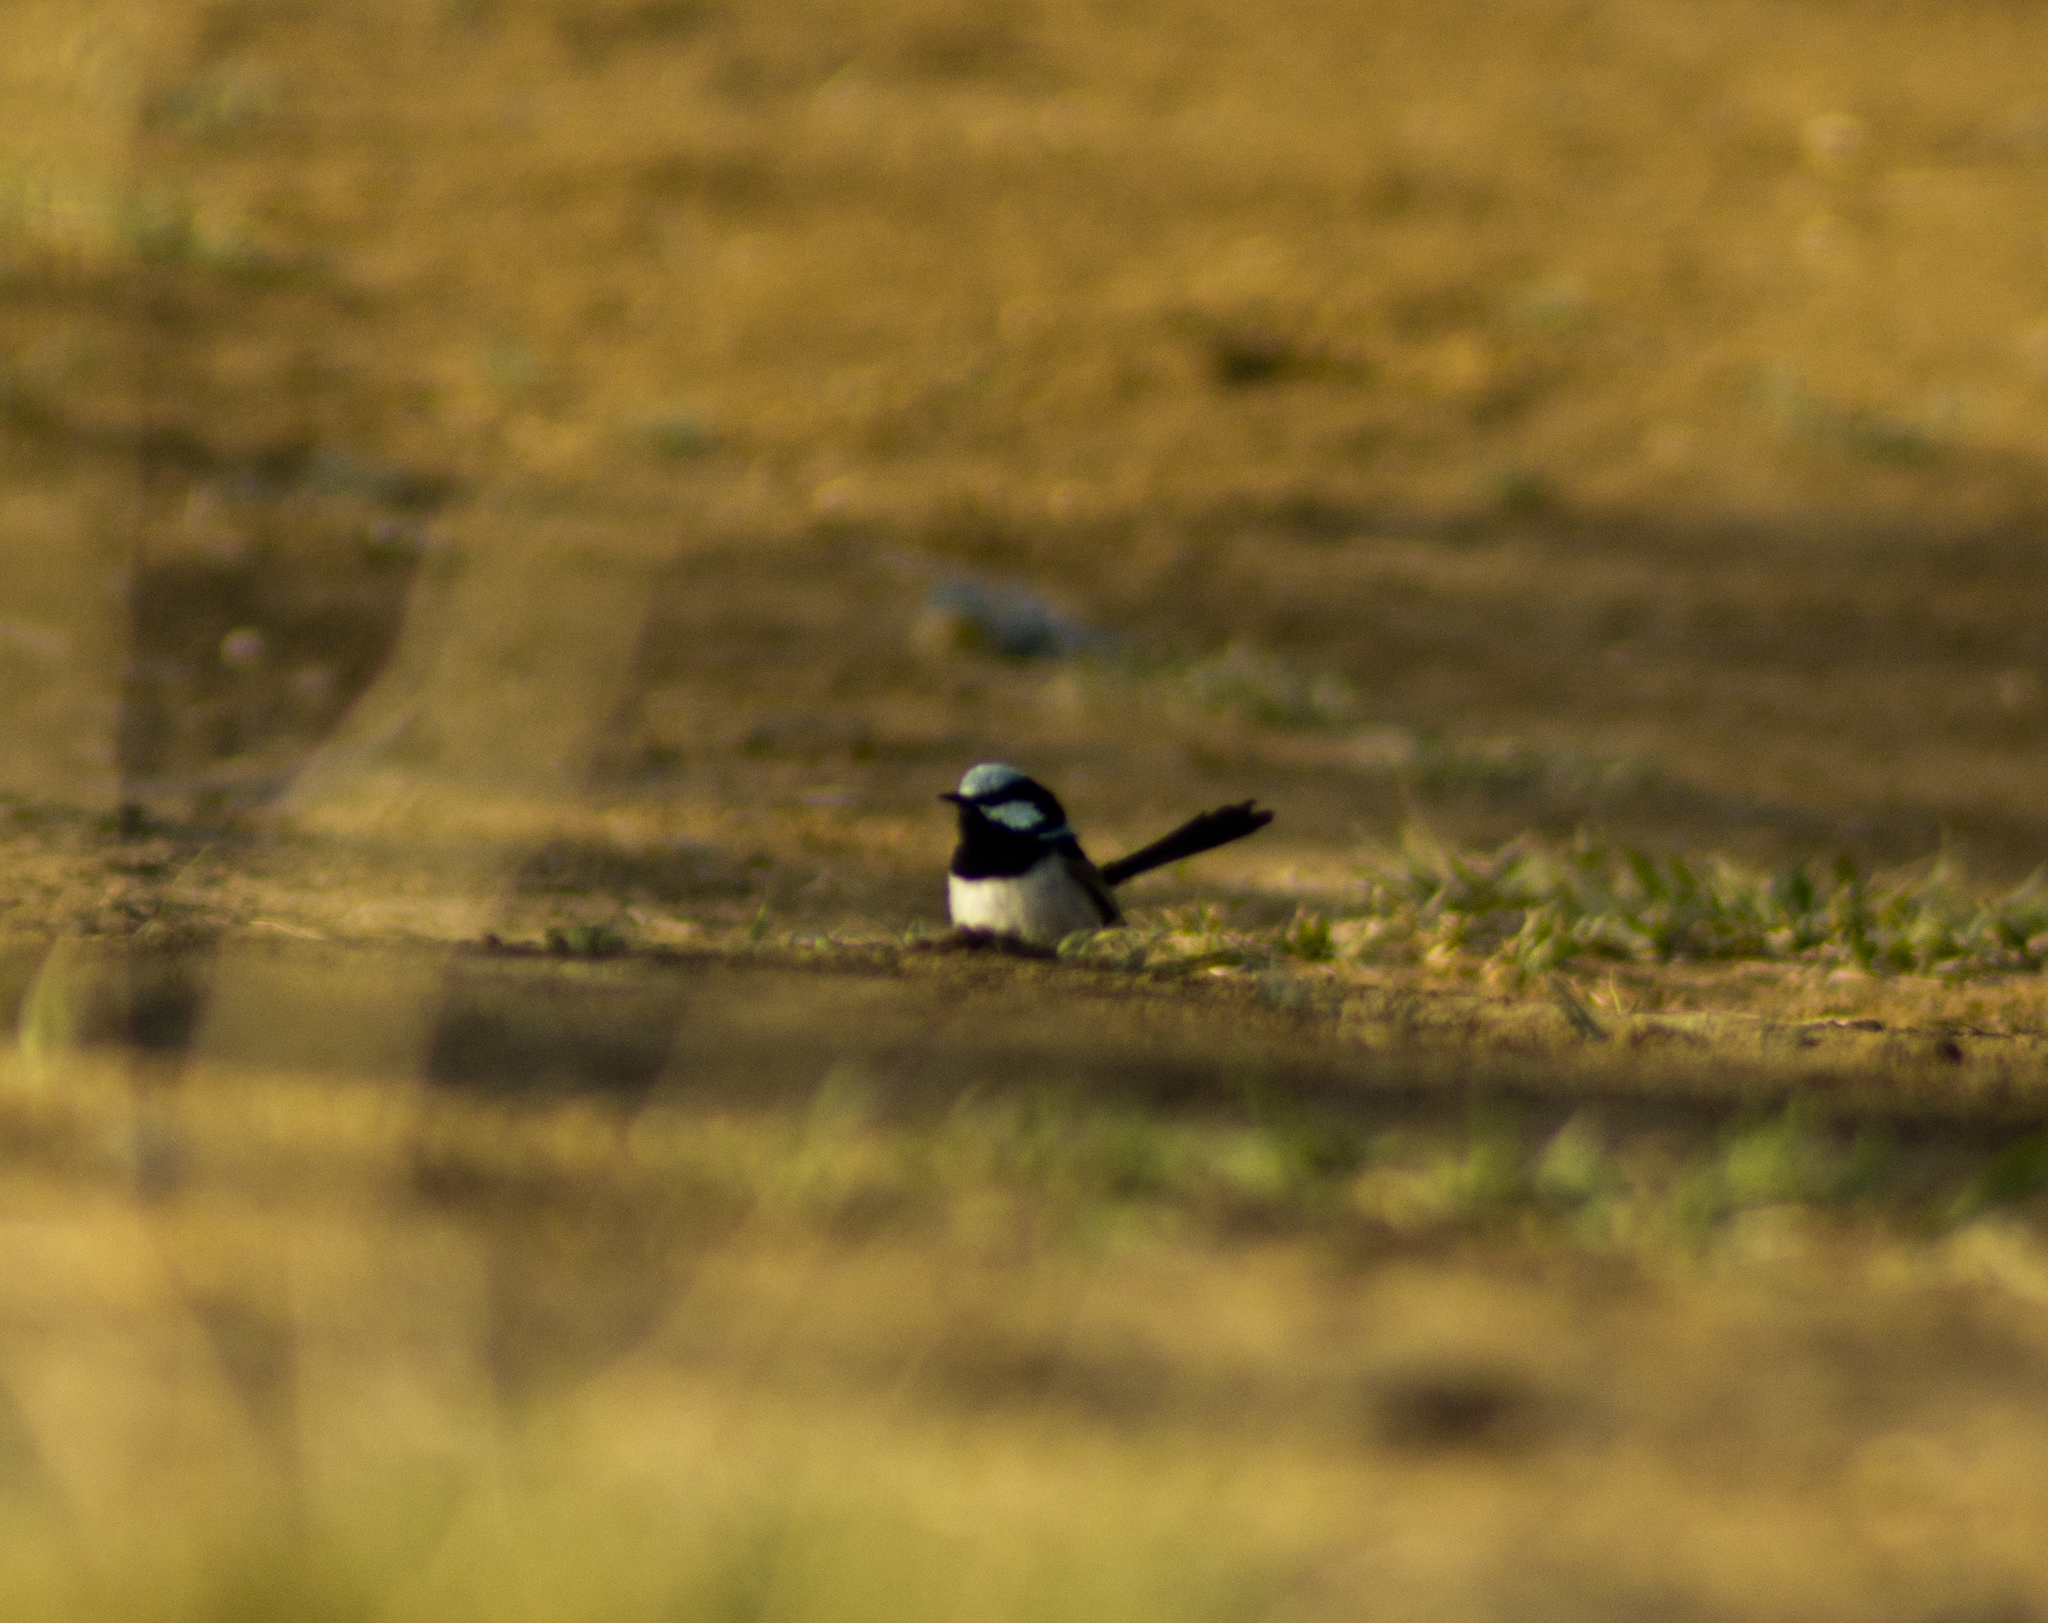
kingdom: Animalia
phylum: Chordata
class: Aves
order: Passeriformes
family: Maluridae
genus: Malurus
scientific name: Malurus cyaneus
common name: Superb fairywren
